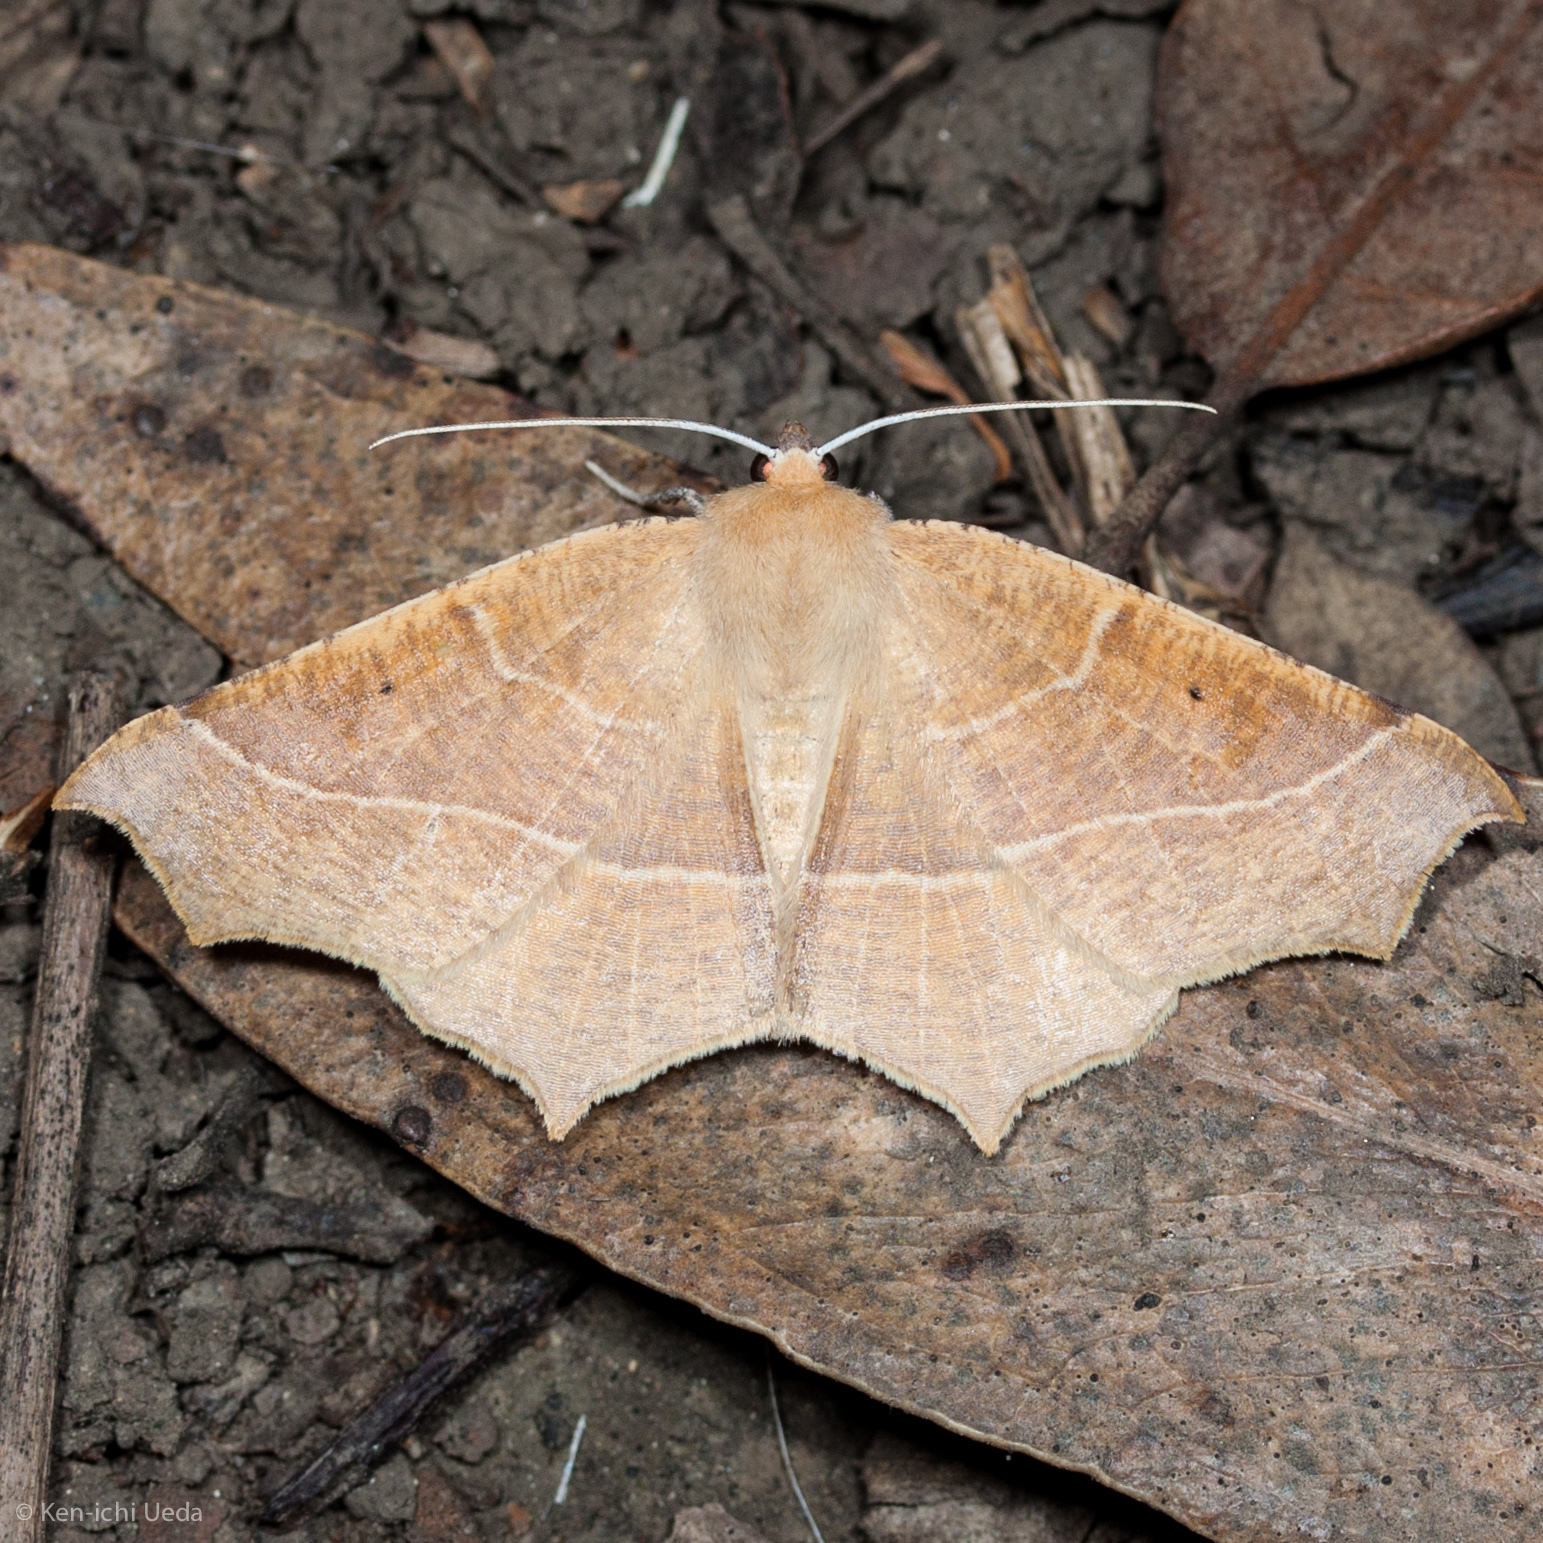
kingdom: Animalia
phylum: Arthropoda
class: Insecta
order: Lepidoptera
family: Geometridae
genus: Tetracis
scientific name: Tetracis cervinaria
